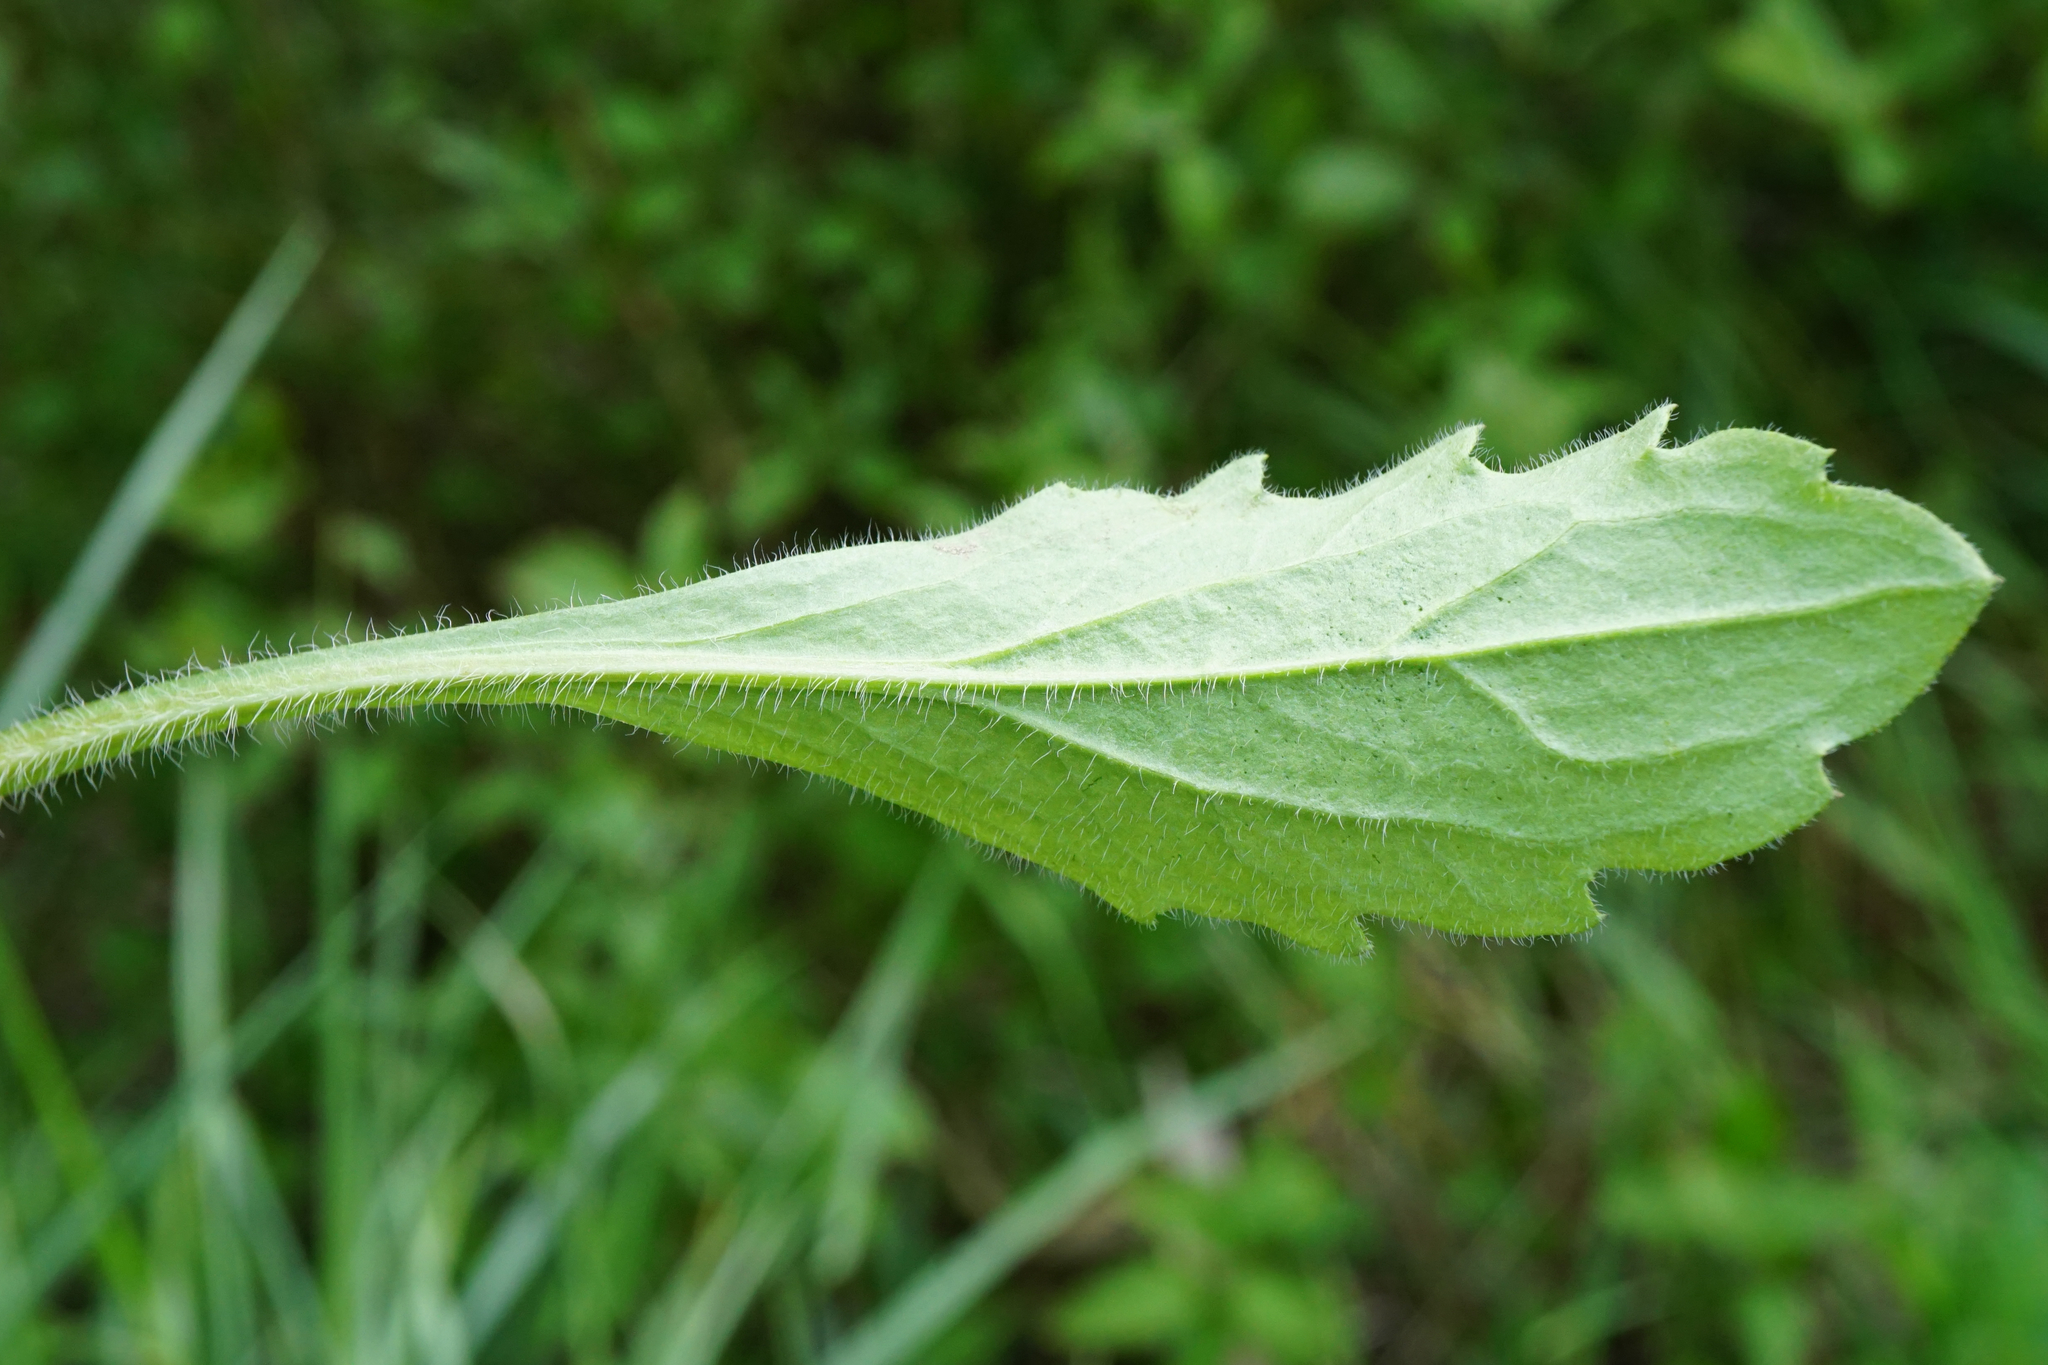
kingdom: Plantae
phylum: Tracheophyta
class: Magnoliopsida
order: Asterales
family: Asteraceae
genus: Erigeron
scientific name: Erigeron annuus
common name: Tall fleabane
